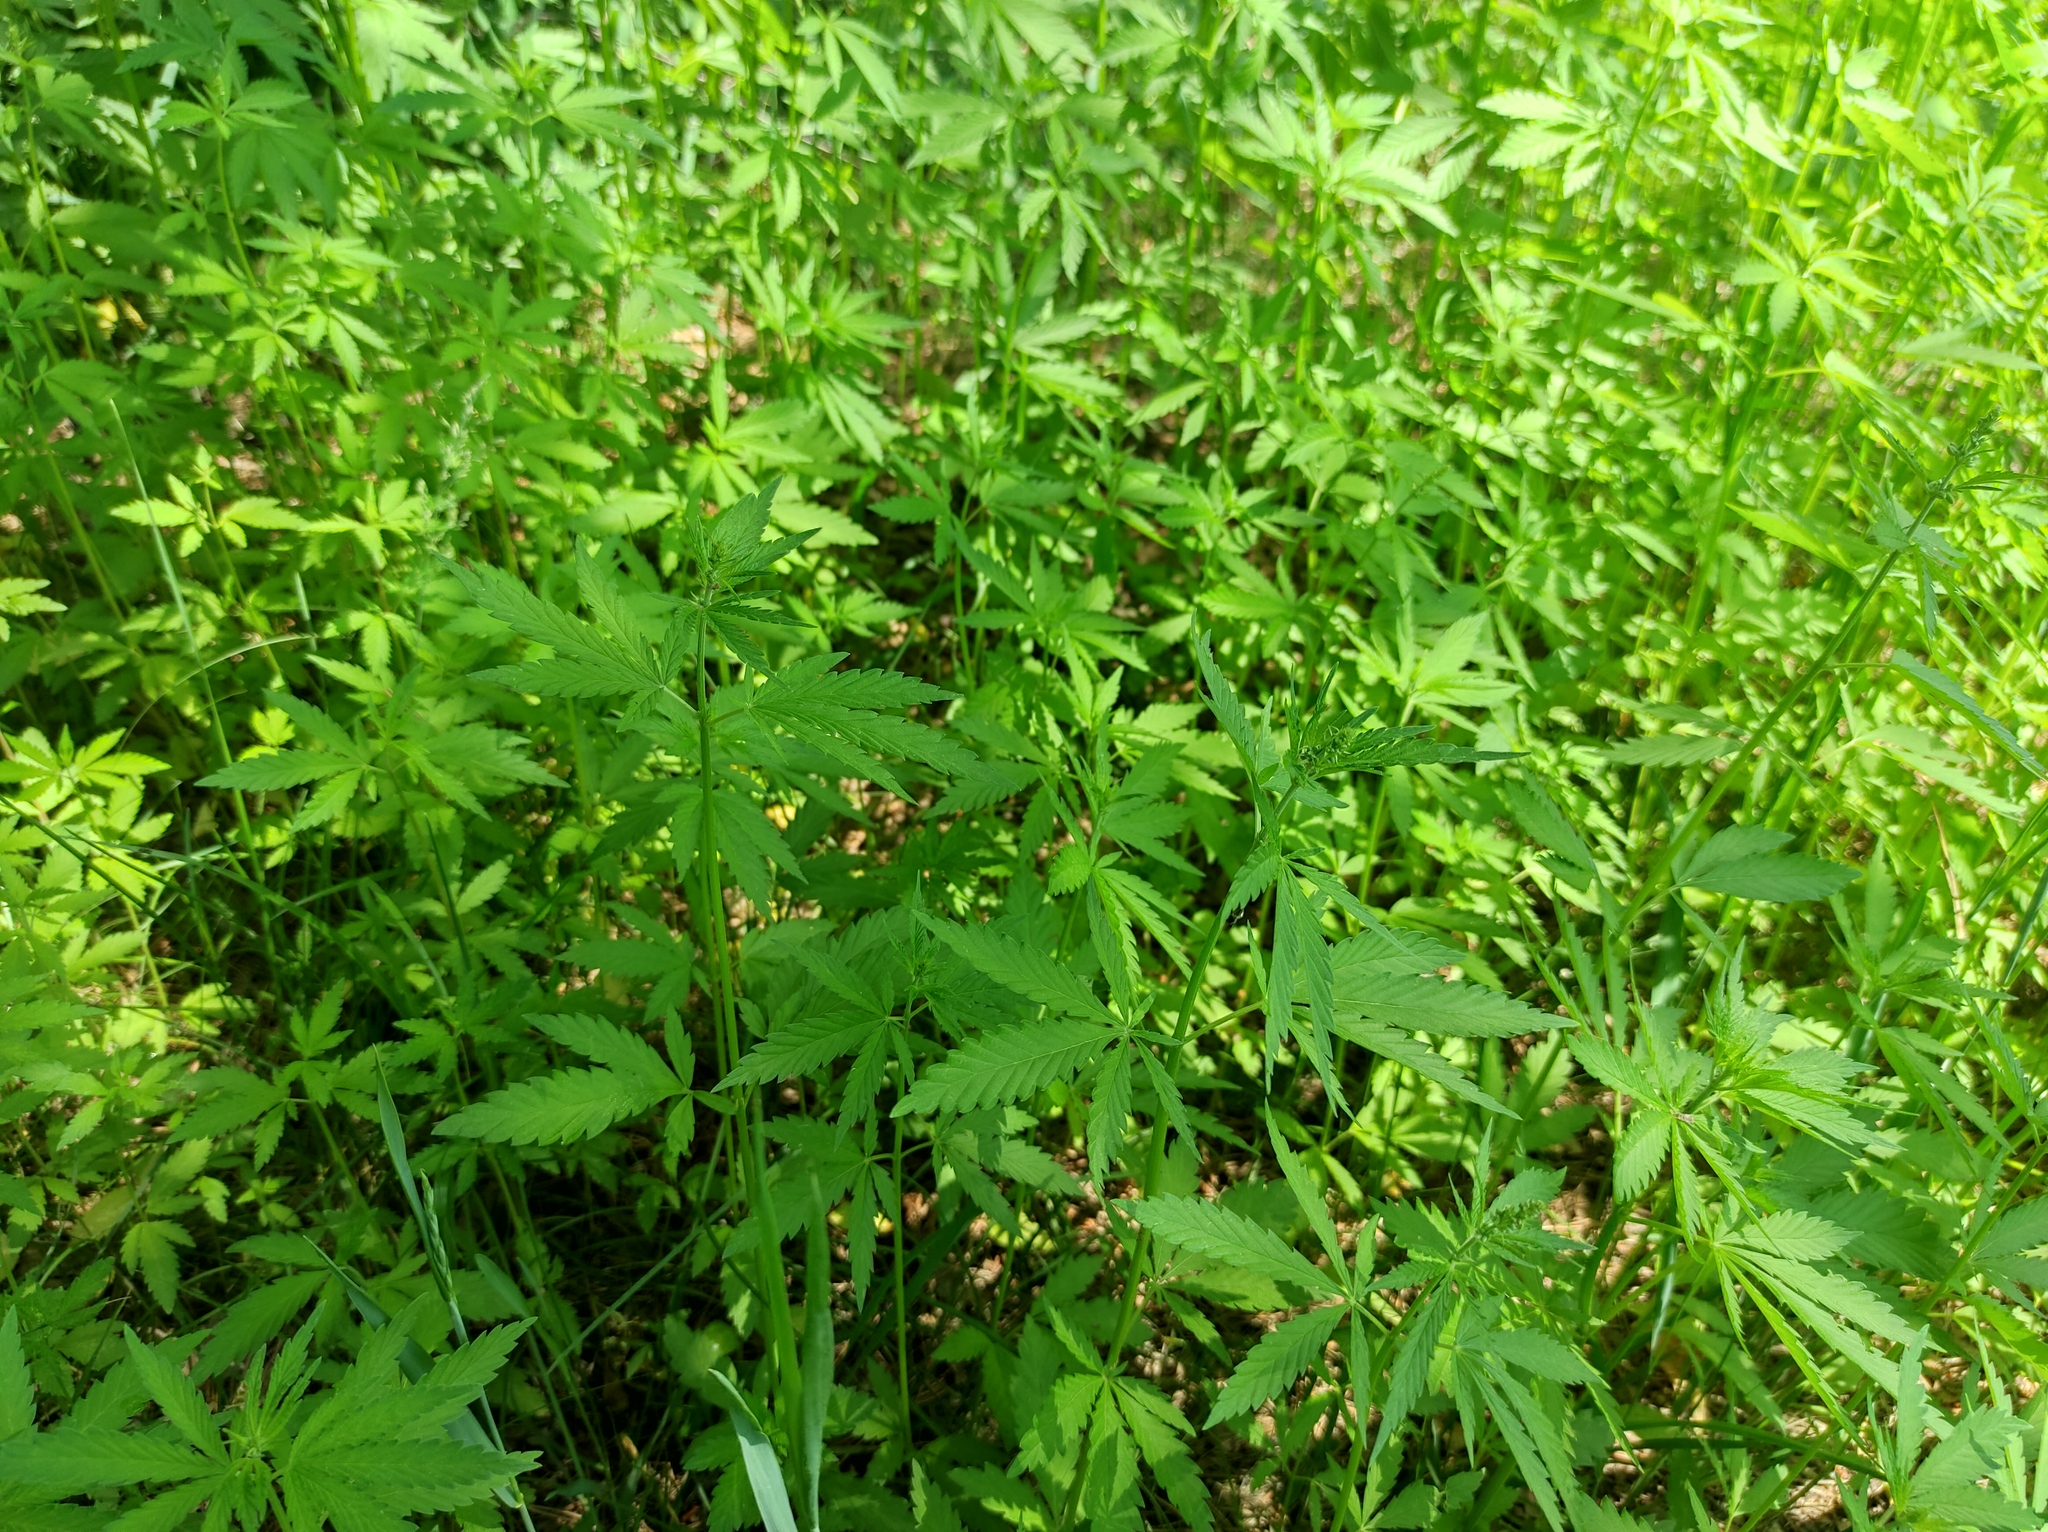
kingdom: Plantae
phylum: Tracheophyta
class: Magnoliopsida
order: Rosales
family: Cannabaceae
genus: Cannabis
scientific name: Cannabis sativa
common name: Hemp
